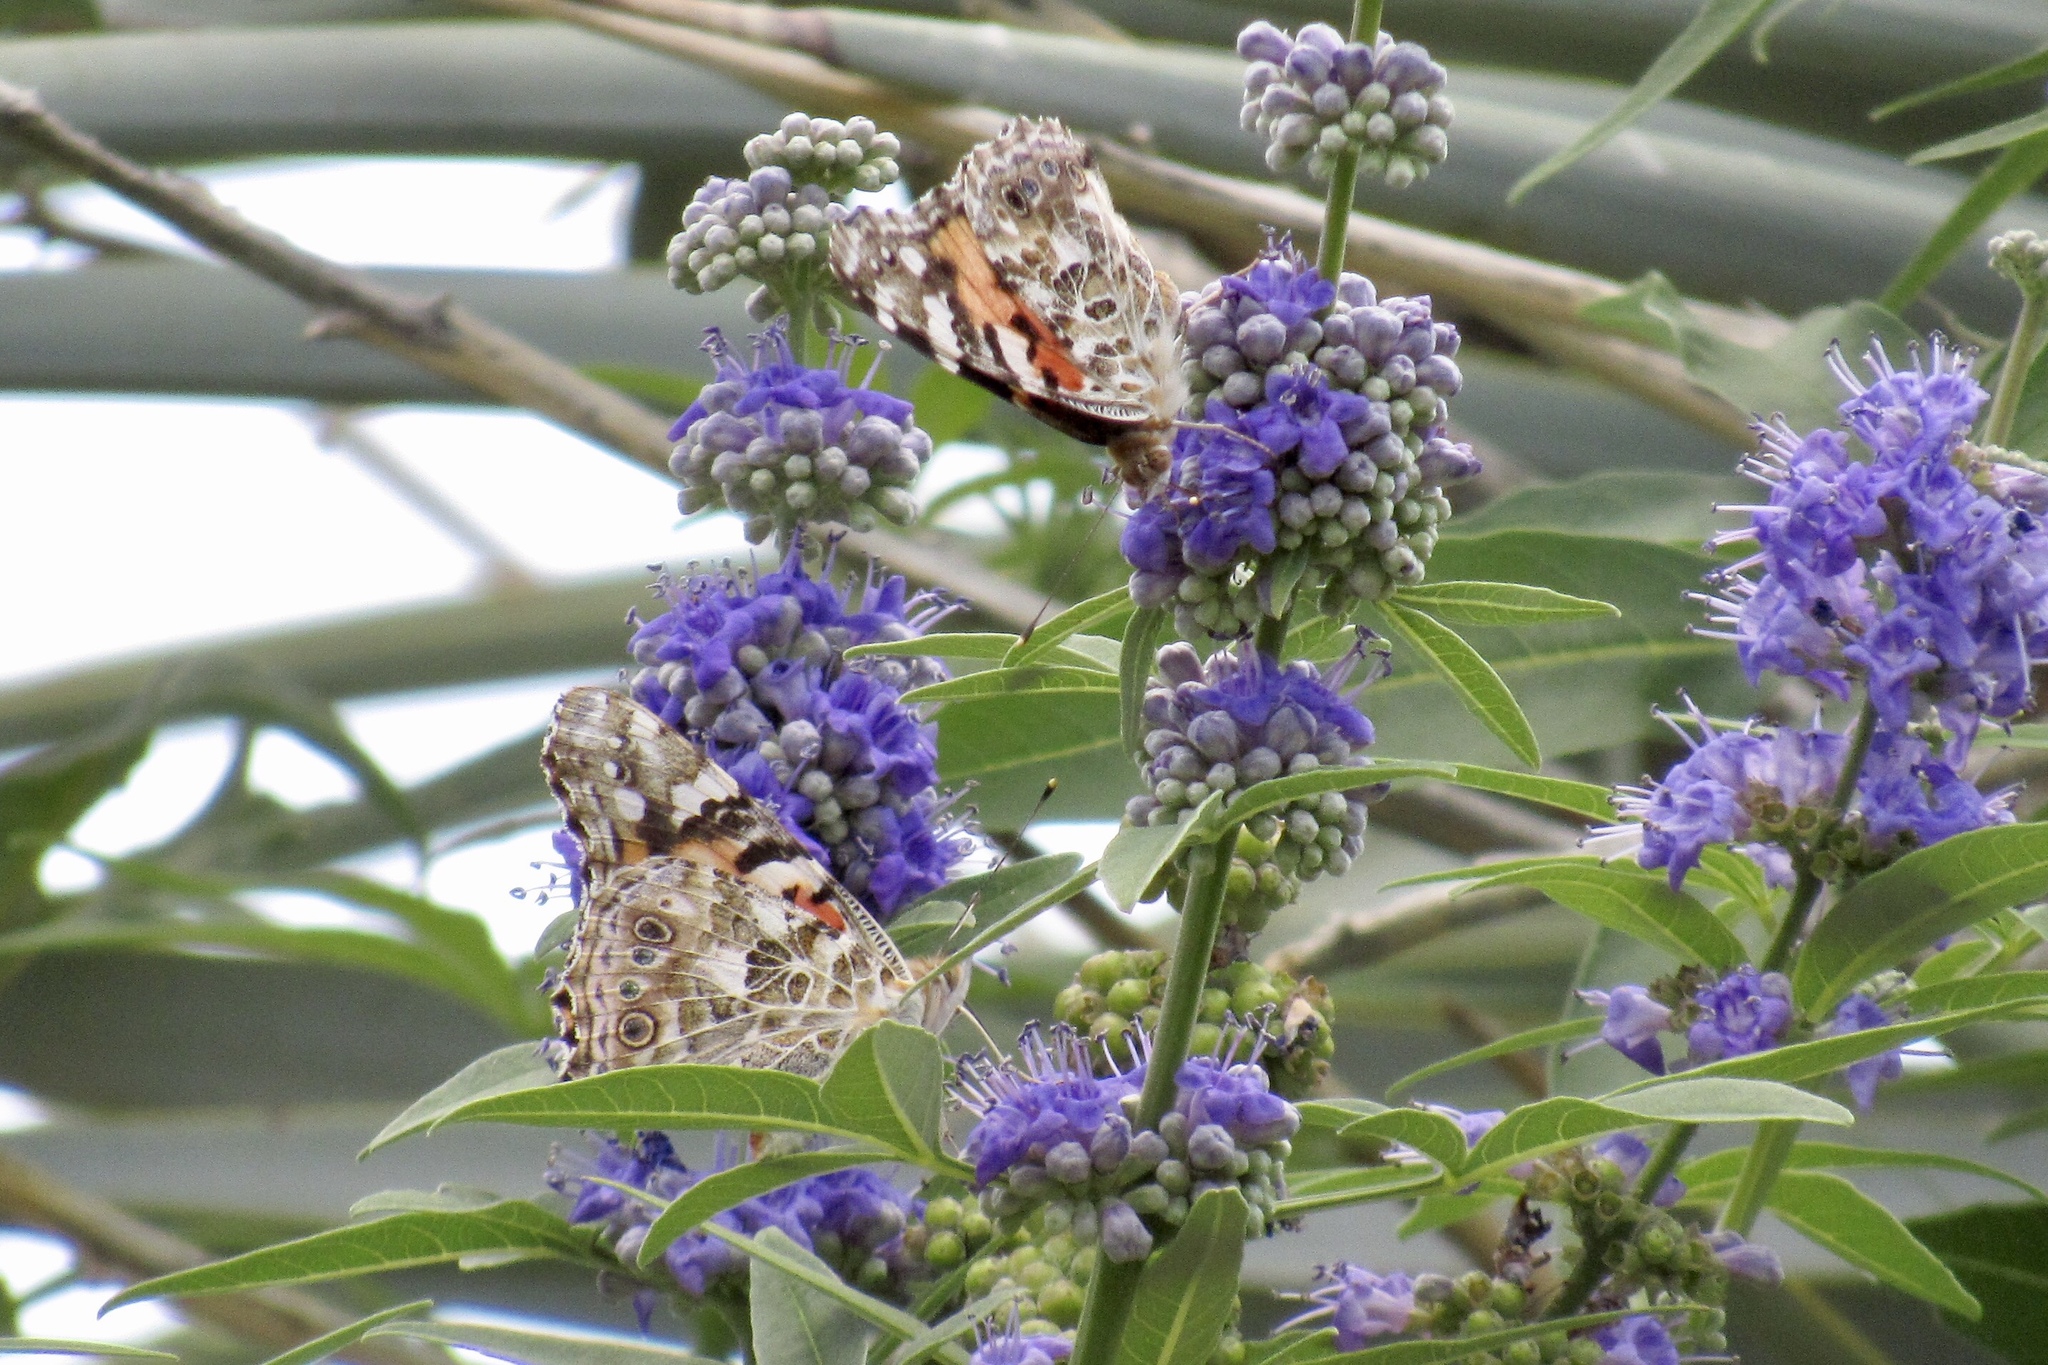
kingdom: Animalia
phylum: Arthropoda
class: Insecta
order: Lepidoptera
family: Nymphalidae
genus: Vanessa
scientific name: Vanessa cardui
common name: Painted lady
